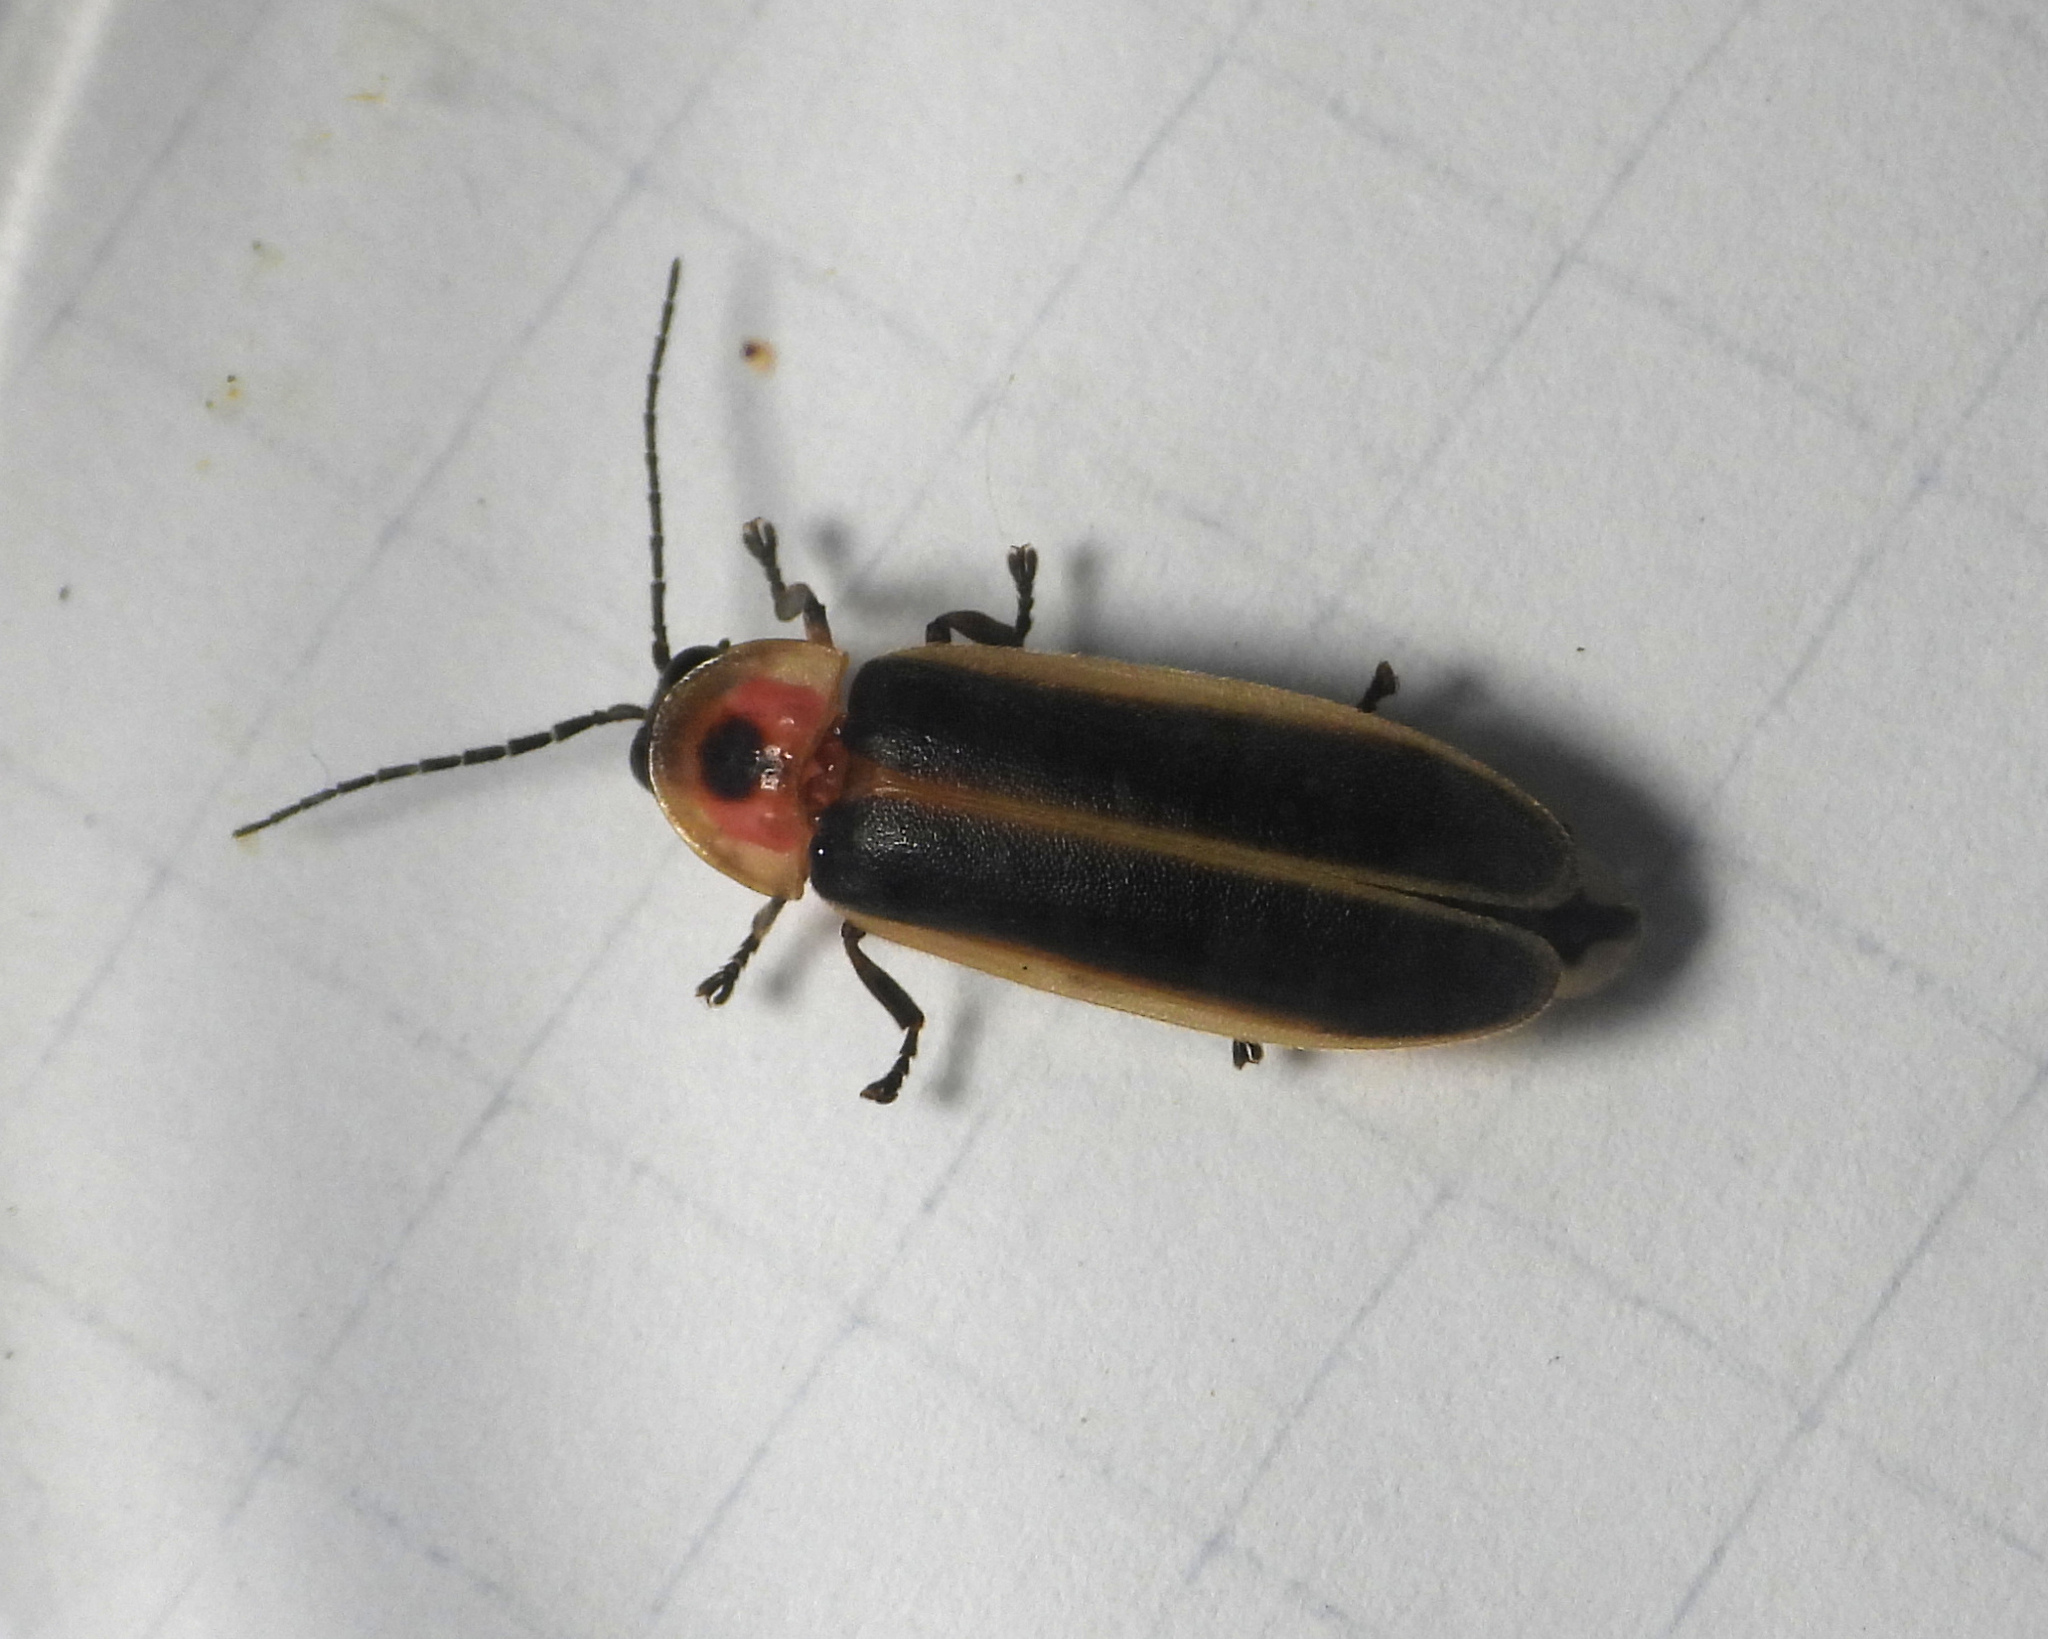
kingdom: Animalia
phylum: Arthropoda
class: Insecta
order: Coleoptera
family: Lampyridae
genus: Photinus
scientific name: Photinus pyralis
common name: Big dipper firefly
